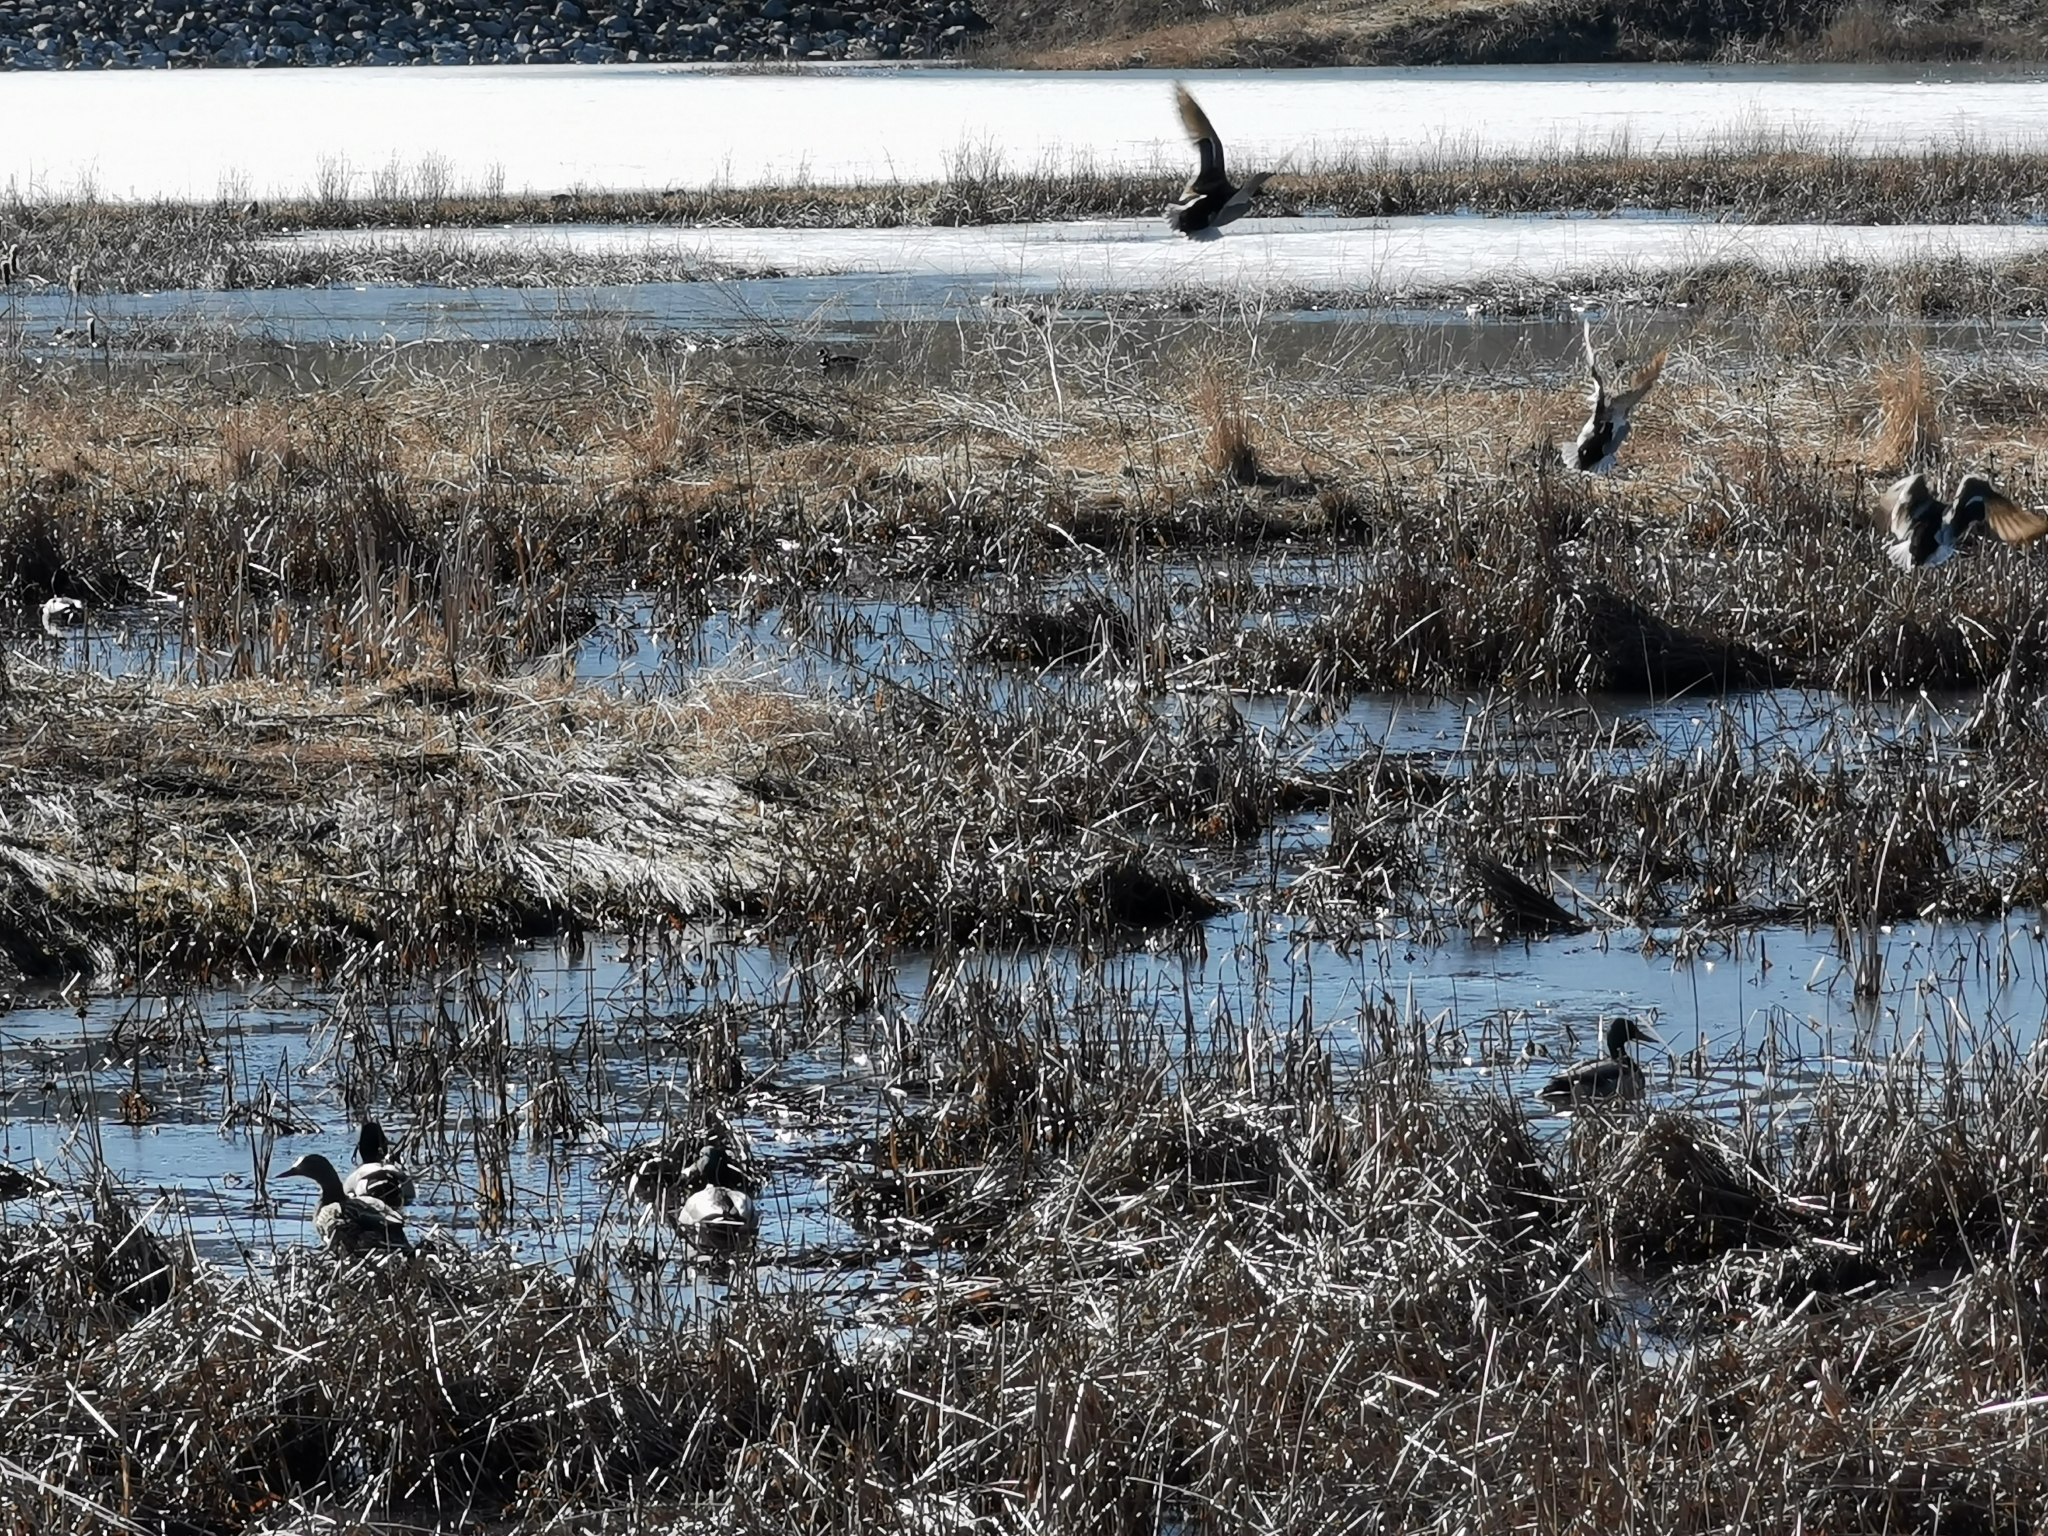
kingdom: Animalia
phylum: Chordata
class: Aves
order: Anseriformes
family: Anatidae
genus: Anas
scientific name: Anas platyrhynchos
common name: Mallard
